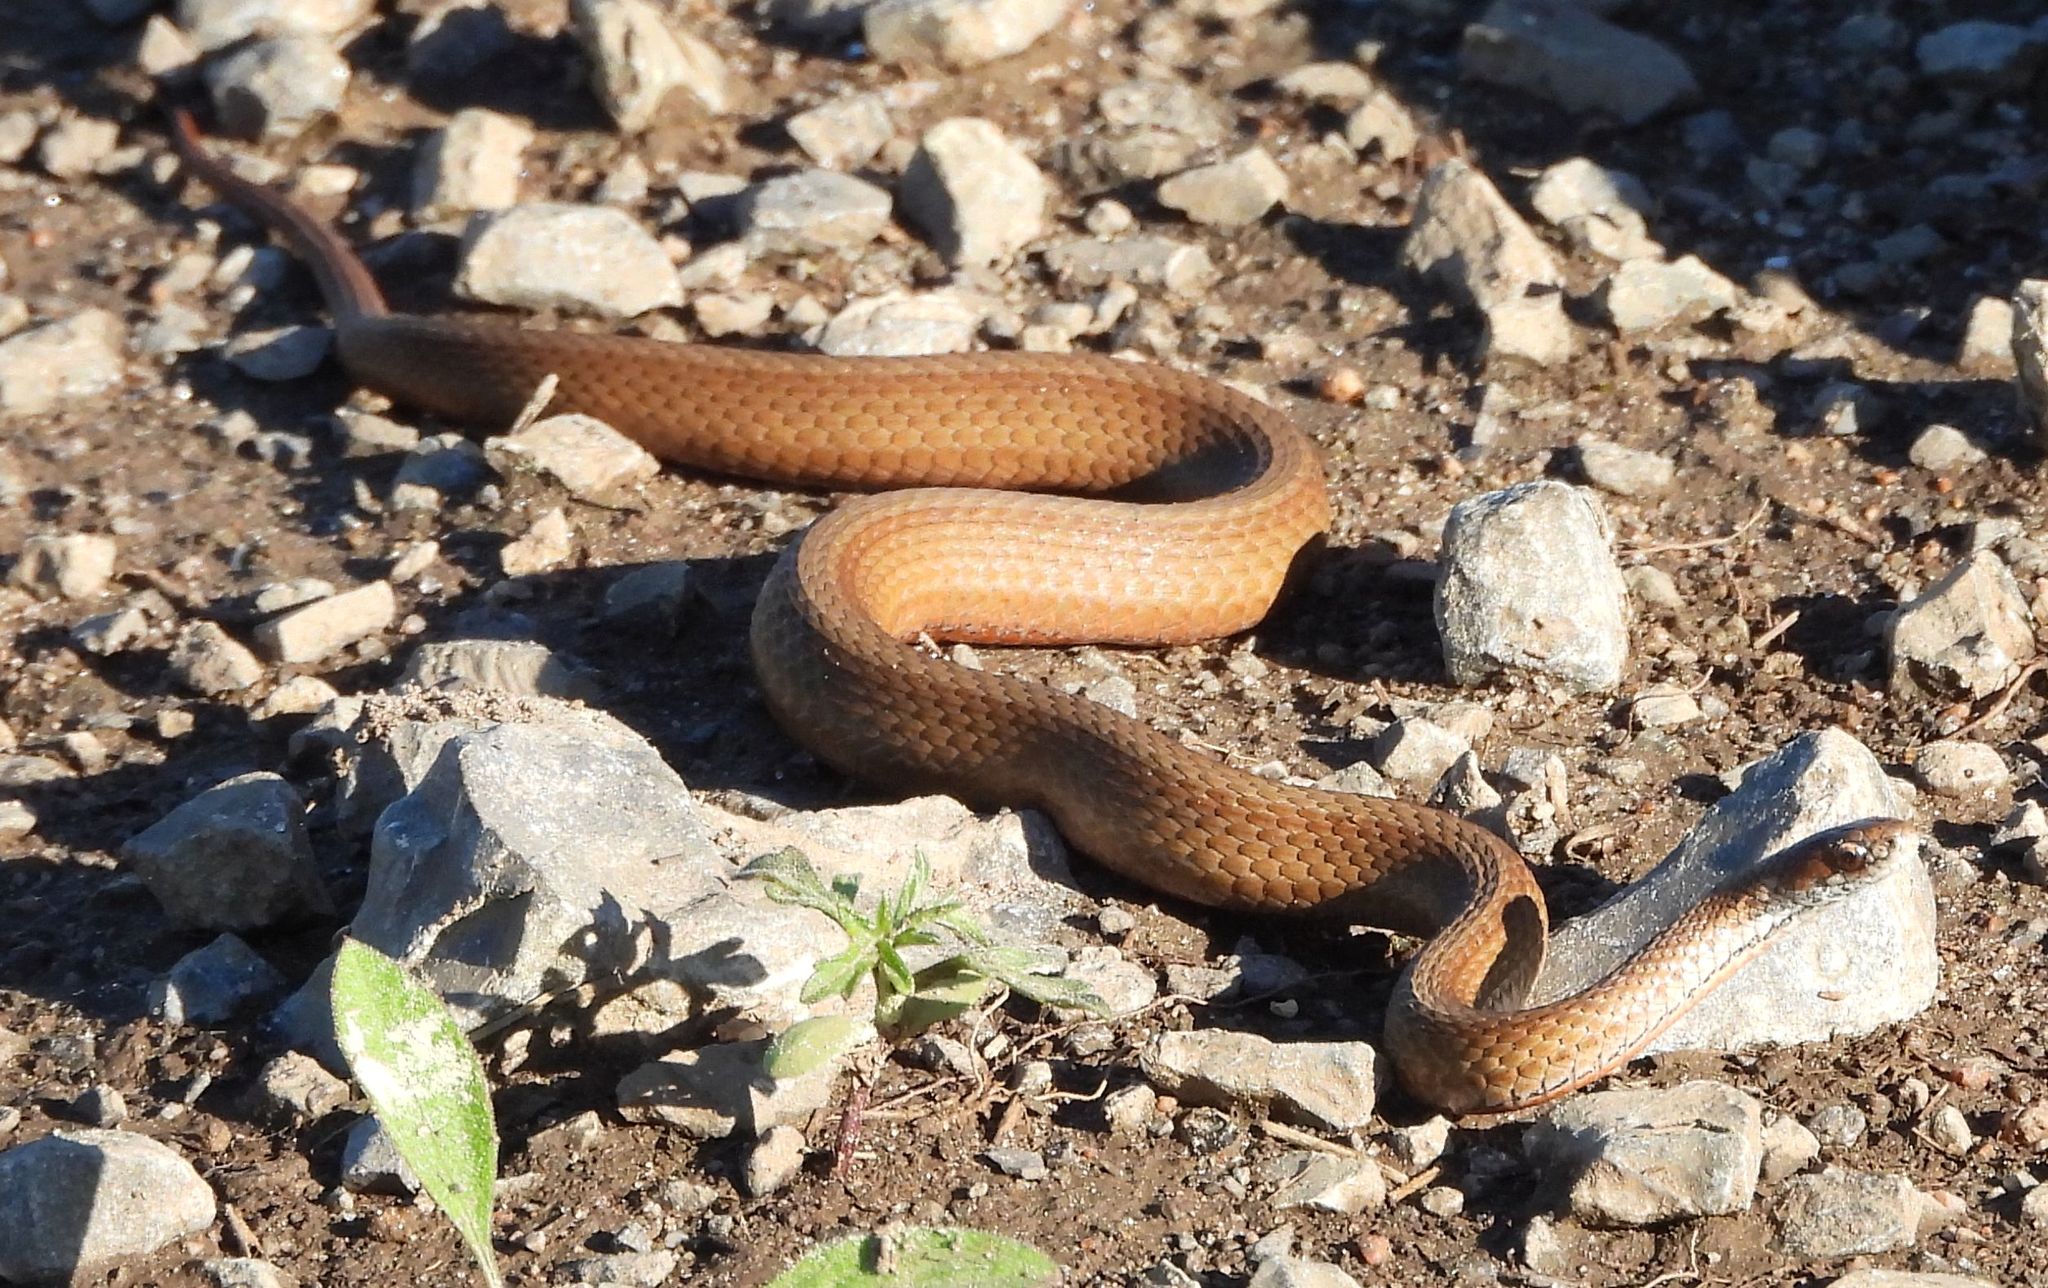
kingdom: Animalia
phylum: Chordata
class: Squamata
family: Colubridae
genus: Storeria
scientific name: Storeria occipitomaculata
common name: Redbelly snake
